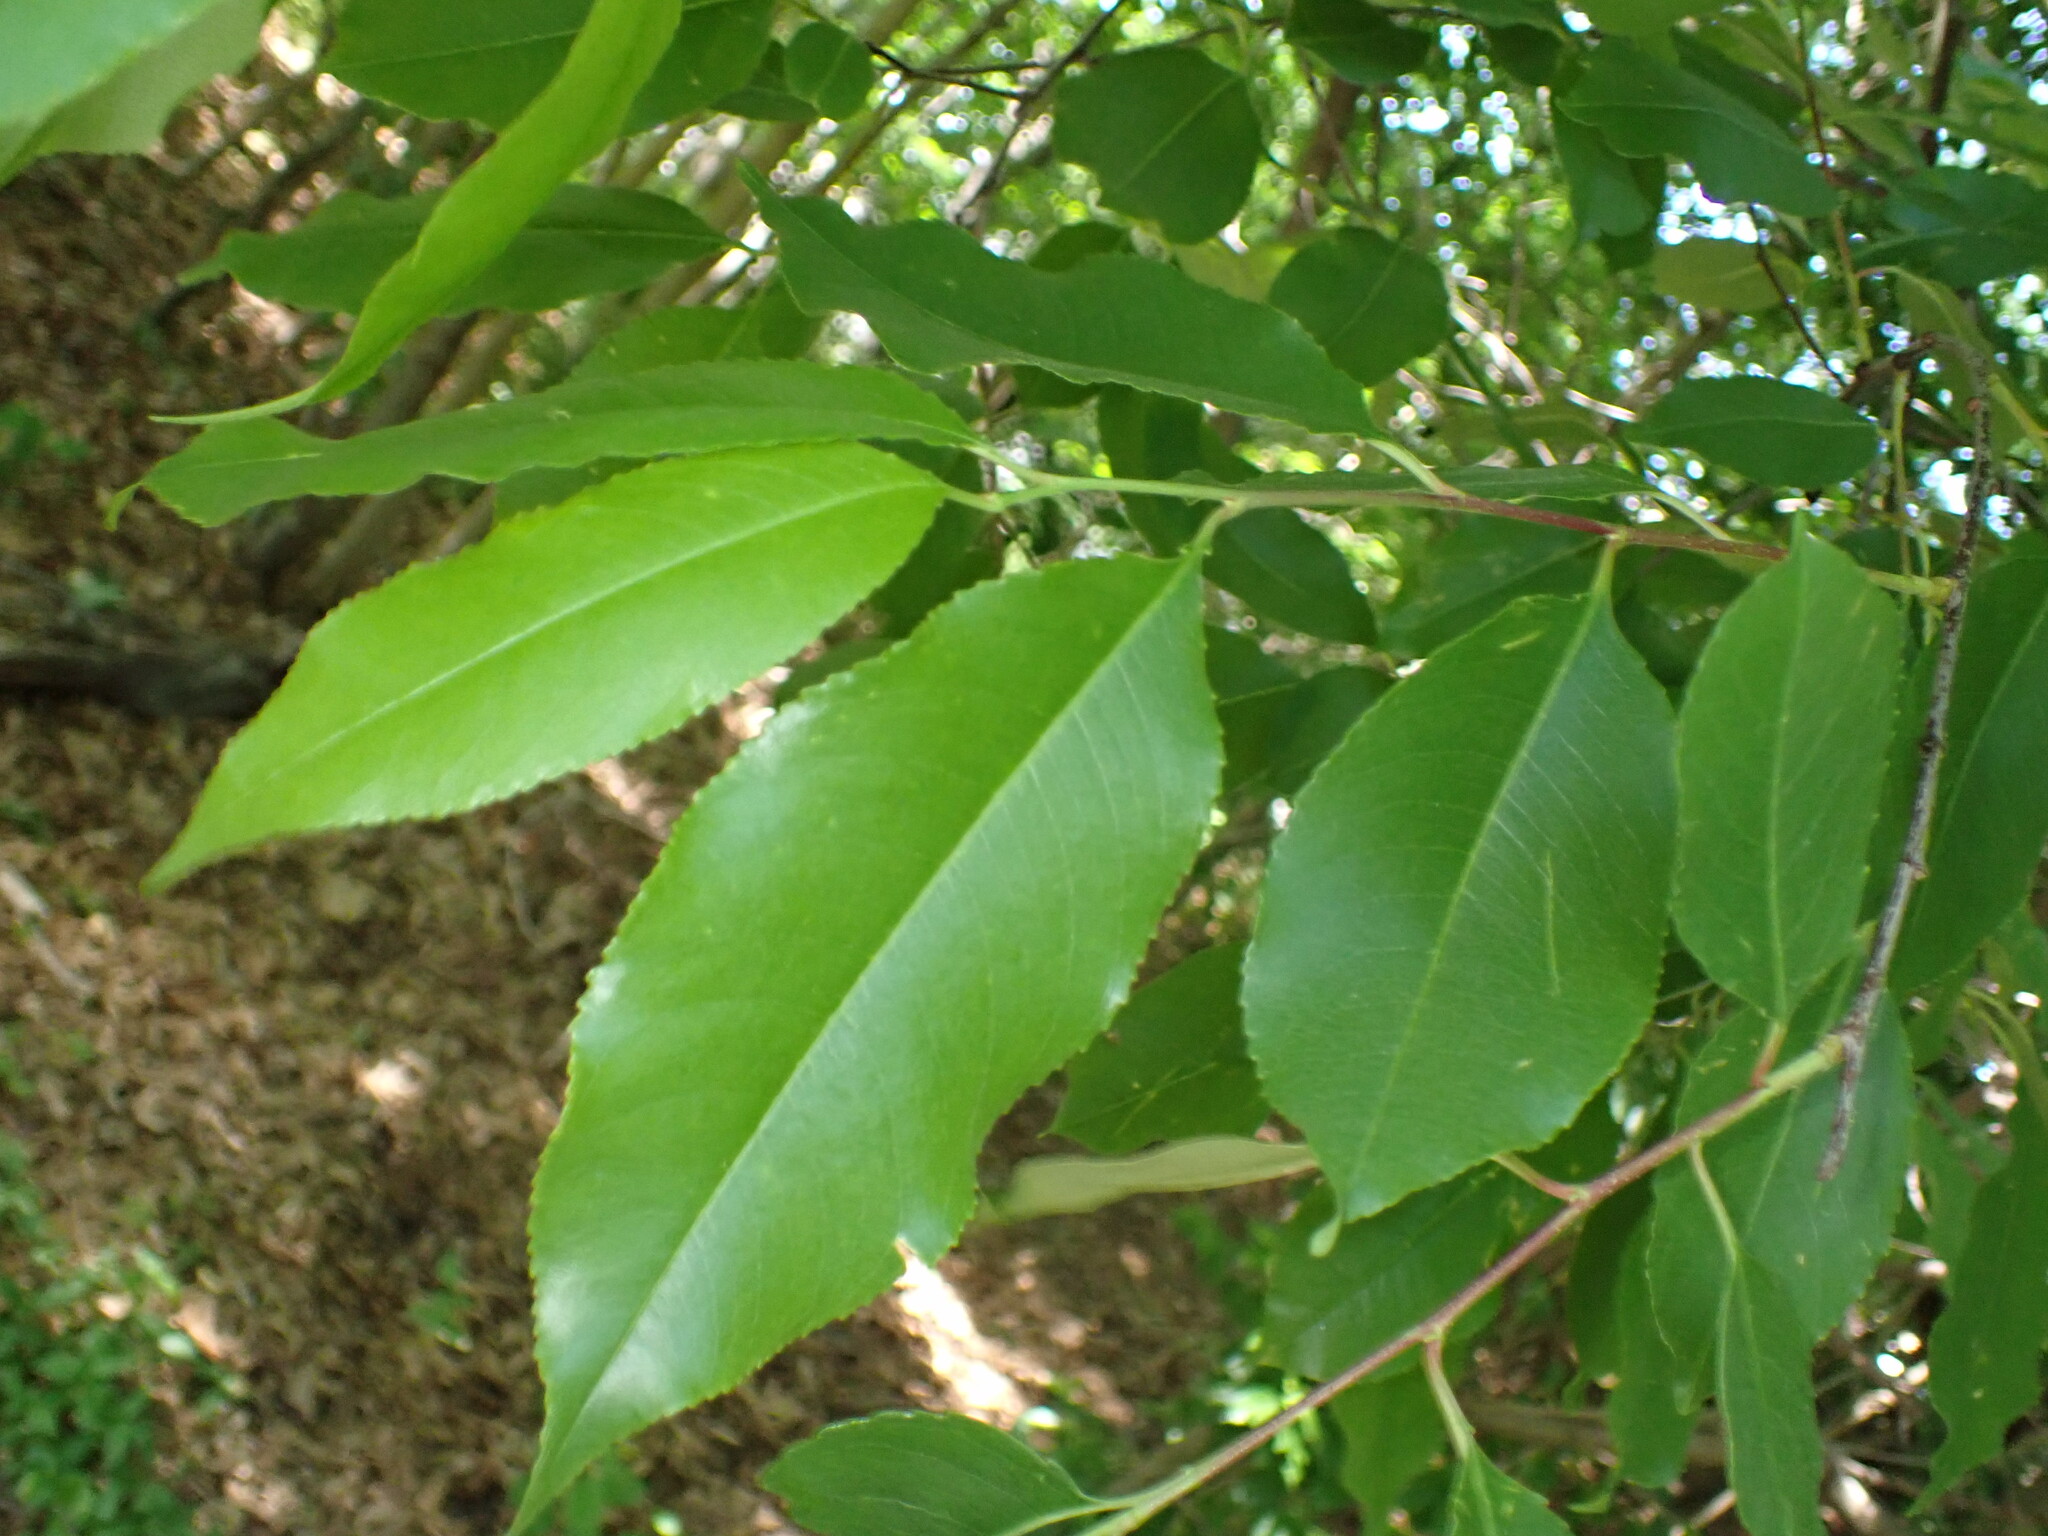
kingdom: Plantae
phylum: Tracheophyta
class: Magnoliopsida
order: Rosales
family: Rosaceae
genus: Prunus
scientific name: Prunus serotina
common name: Black cherry
